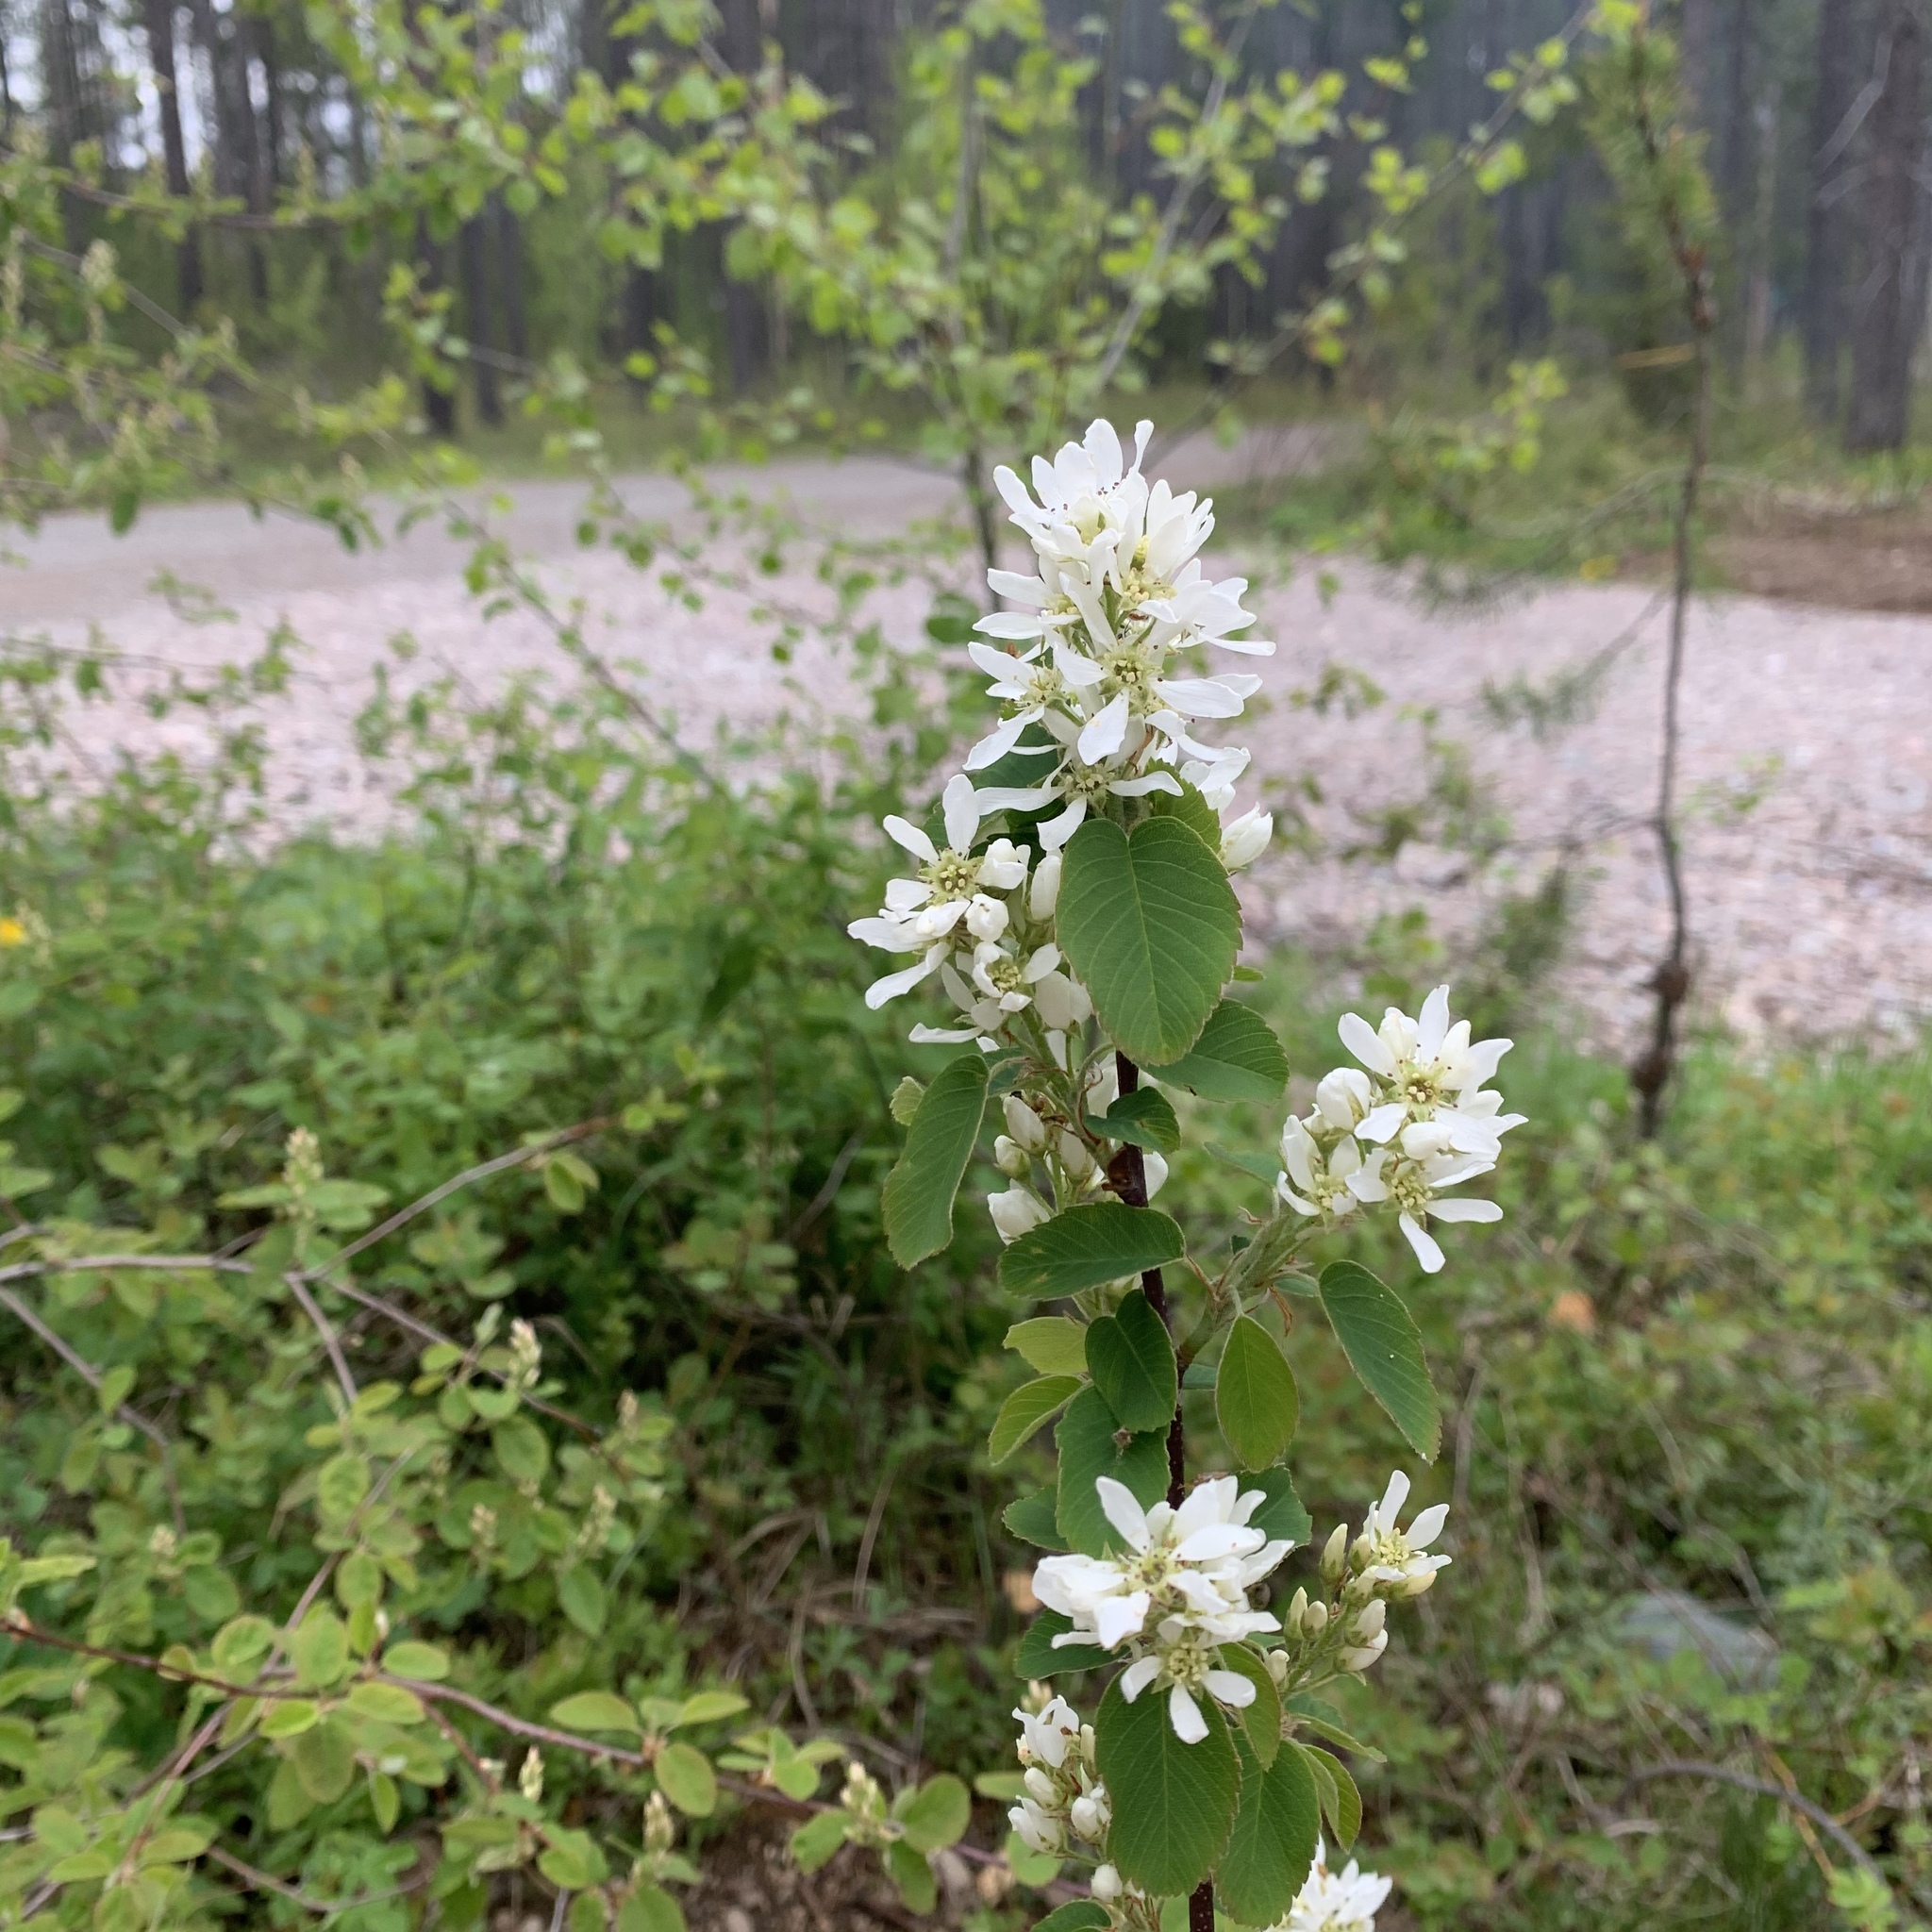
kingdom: Plantae
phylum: Tracheophyta
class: Magnoliopsida
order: Rosales
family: Rosaceae
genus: Amelanchier
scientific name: Amelanchier alnifolia
